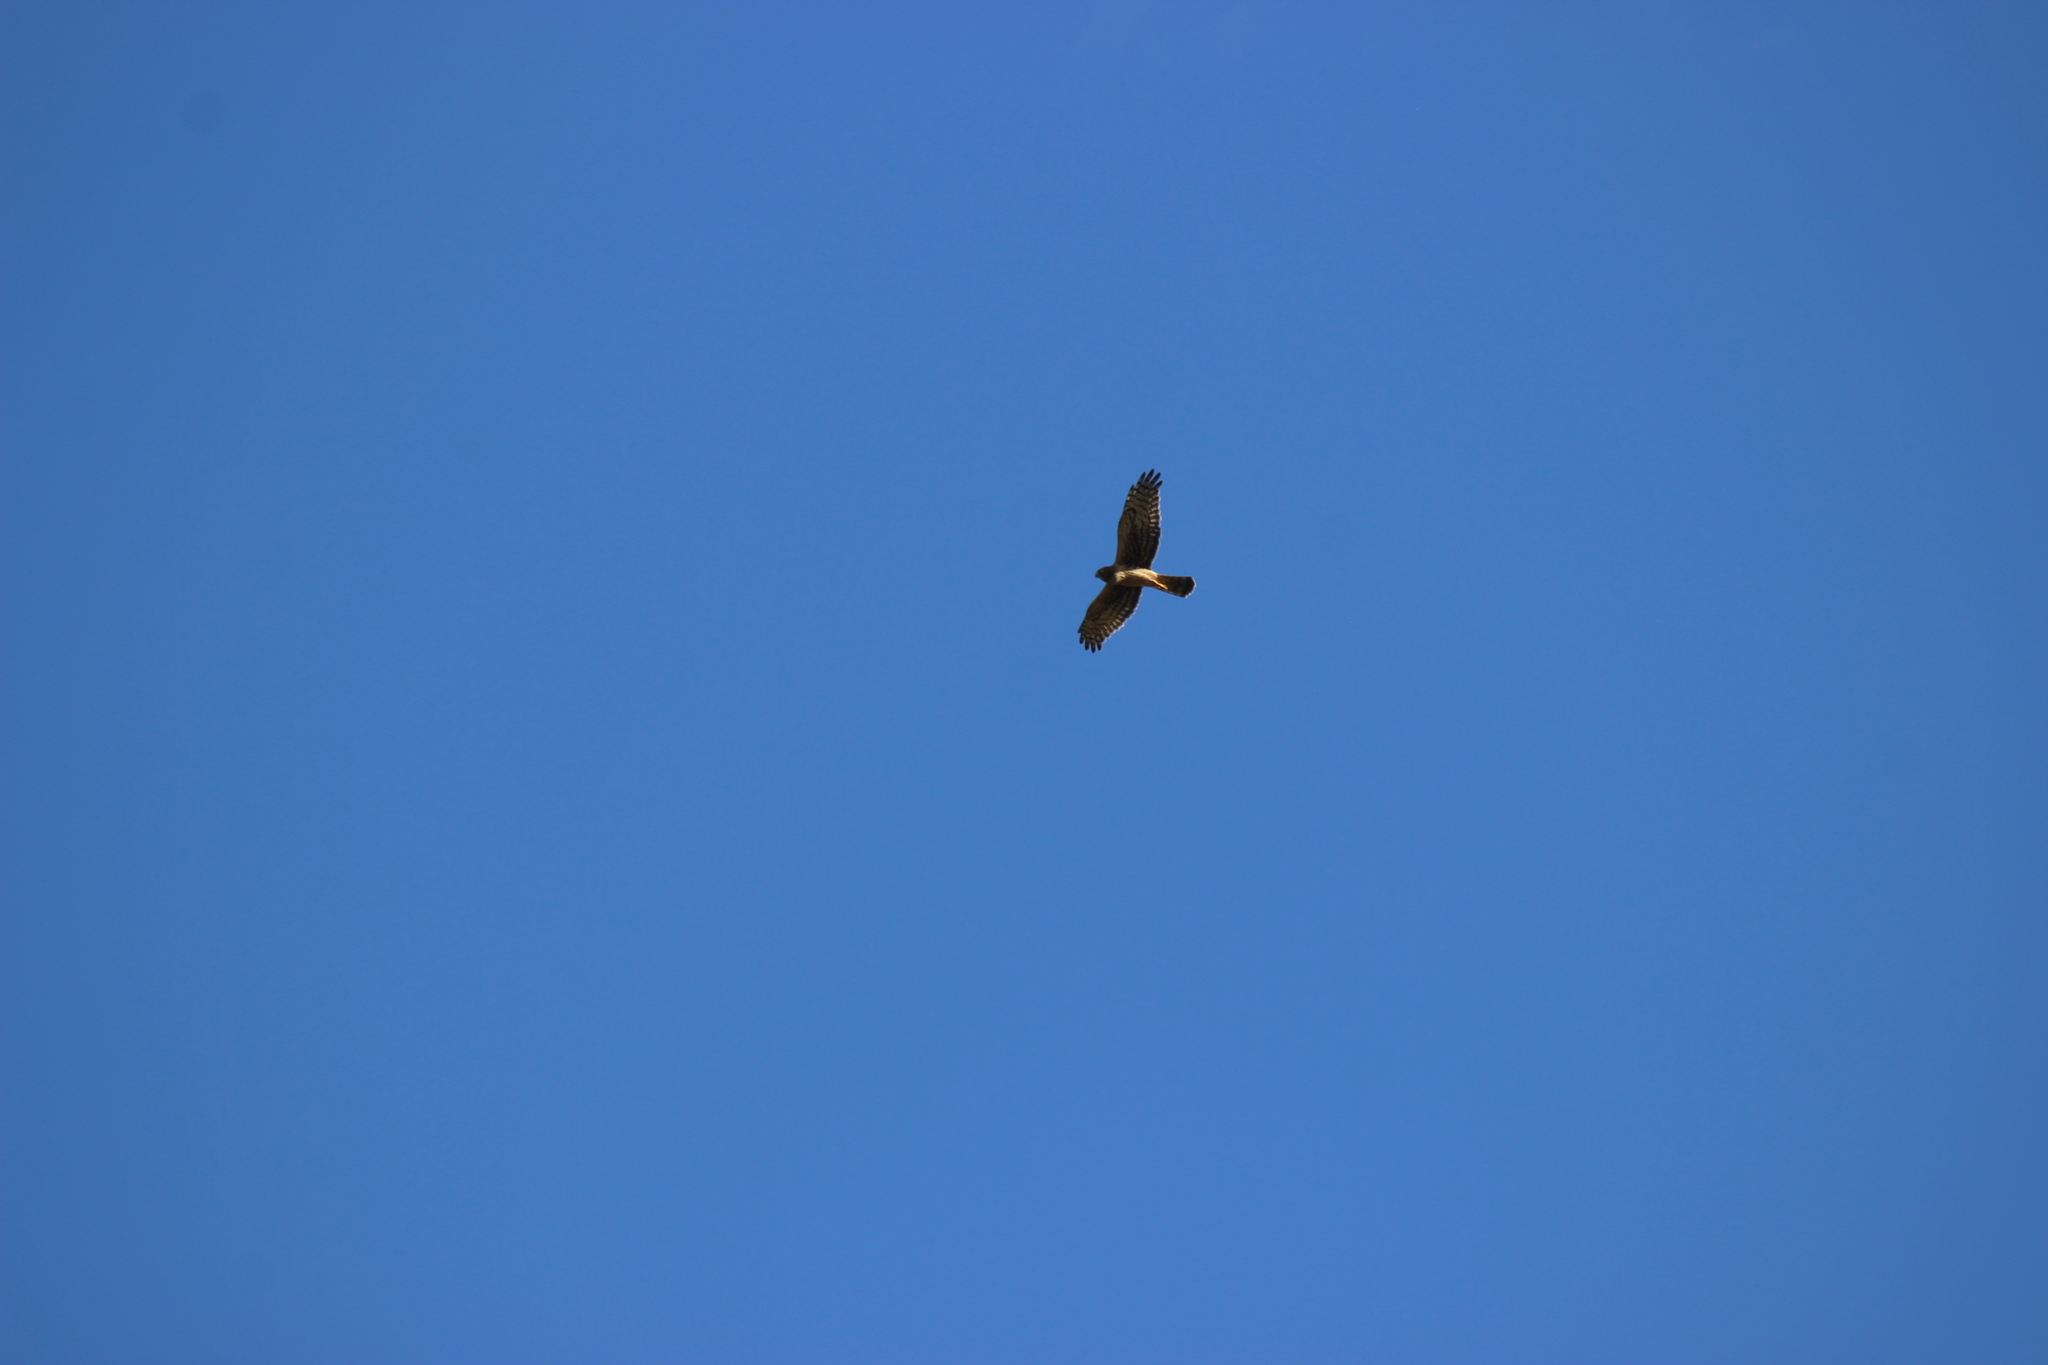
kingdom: Animalia
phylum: Chordata
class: Aves
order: Accipitriformes
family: Accipitridae
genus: Circus
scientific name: Circus cyaneus
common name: Hen harrier
